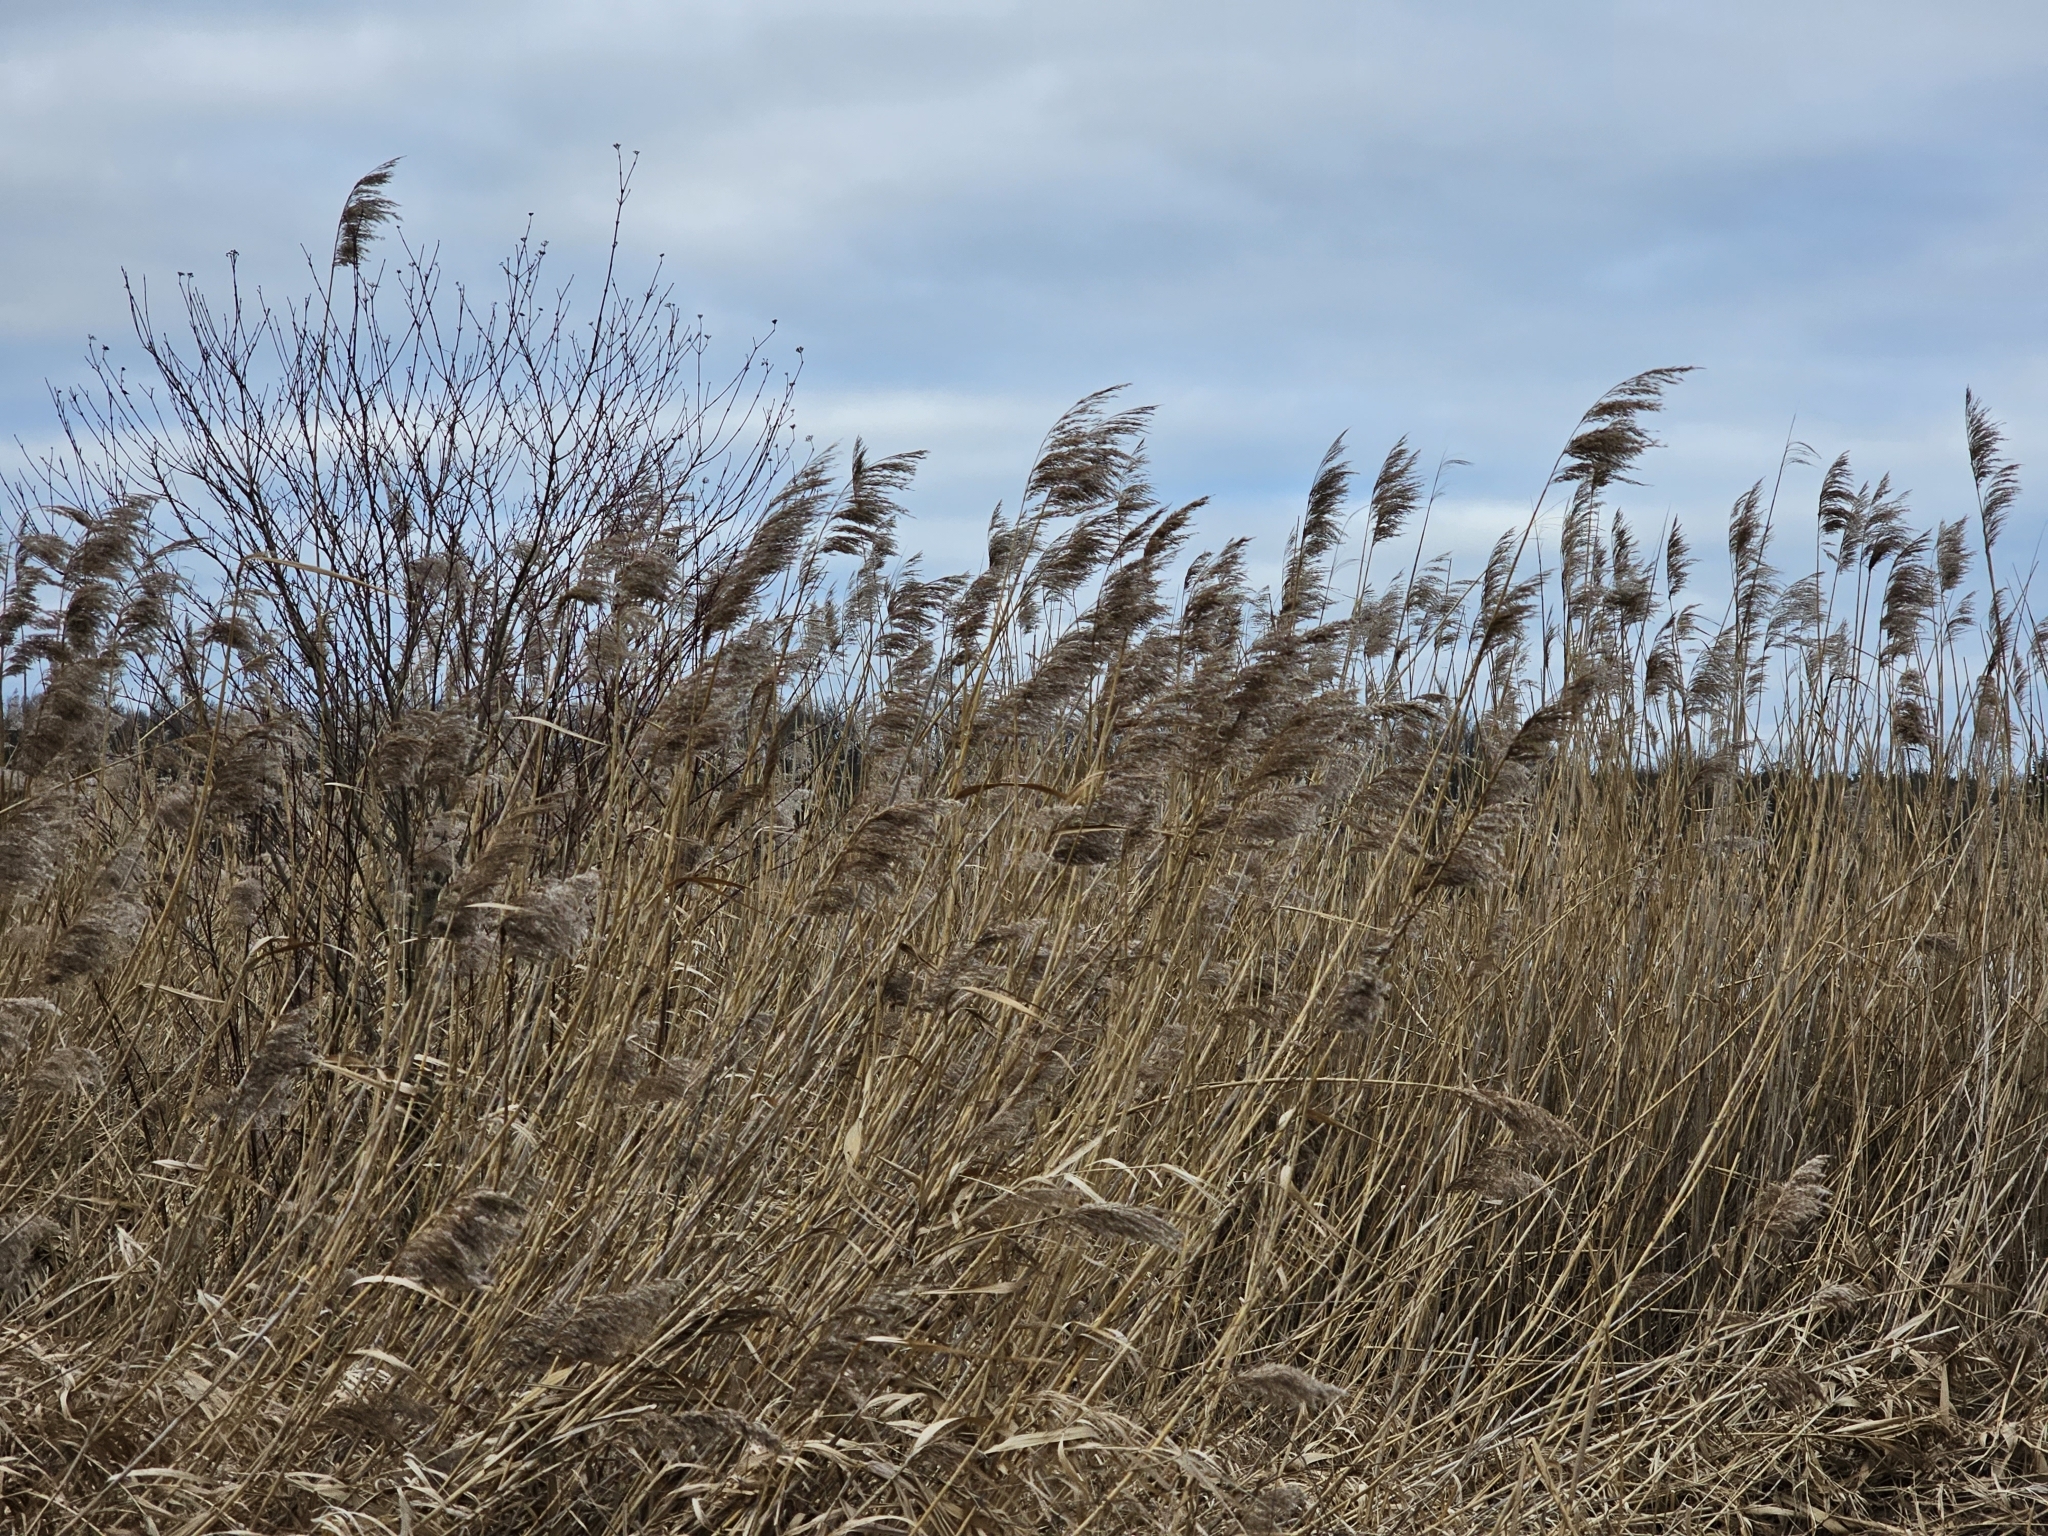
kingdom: Plantae
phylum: Tracheophyta
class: Liliopsida
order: Poales
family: Poaceae
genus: Phragmites
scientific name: Phragmites australis
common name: Common reed
